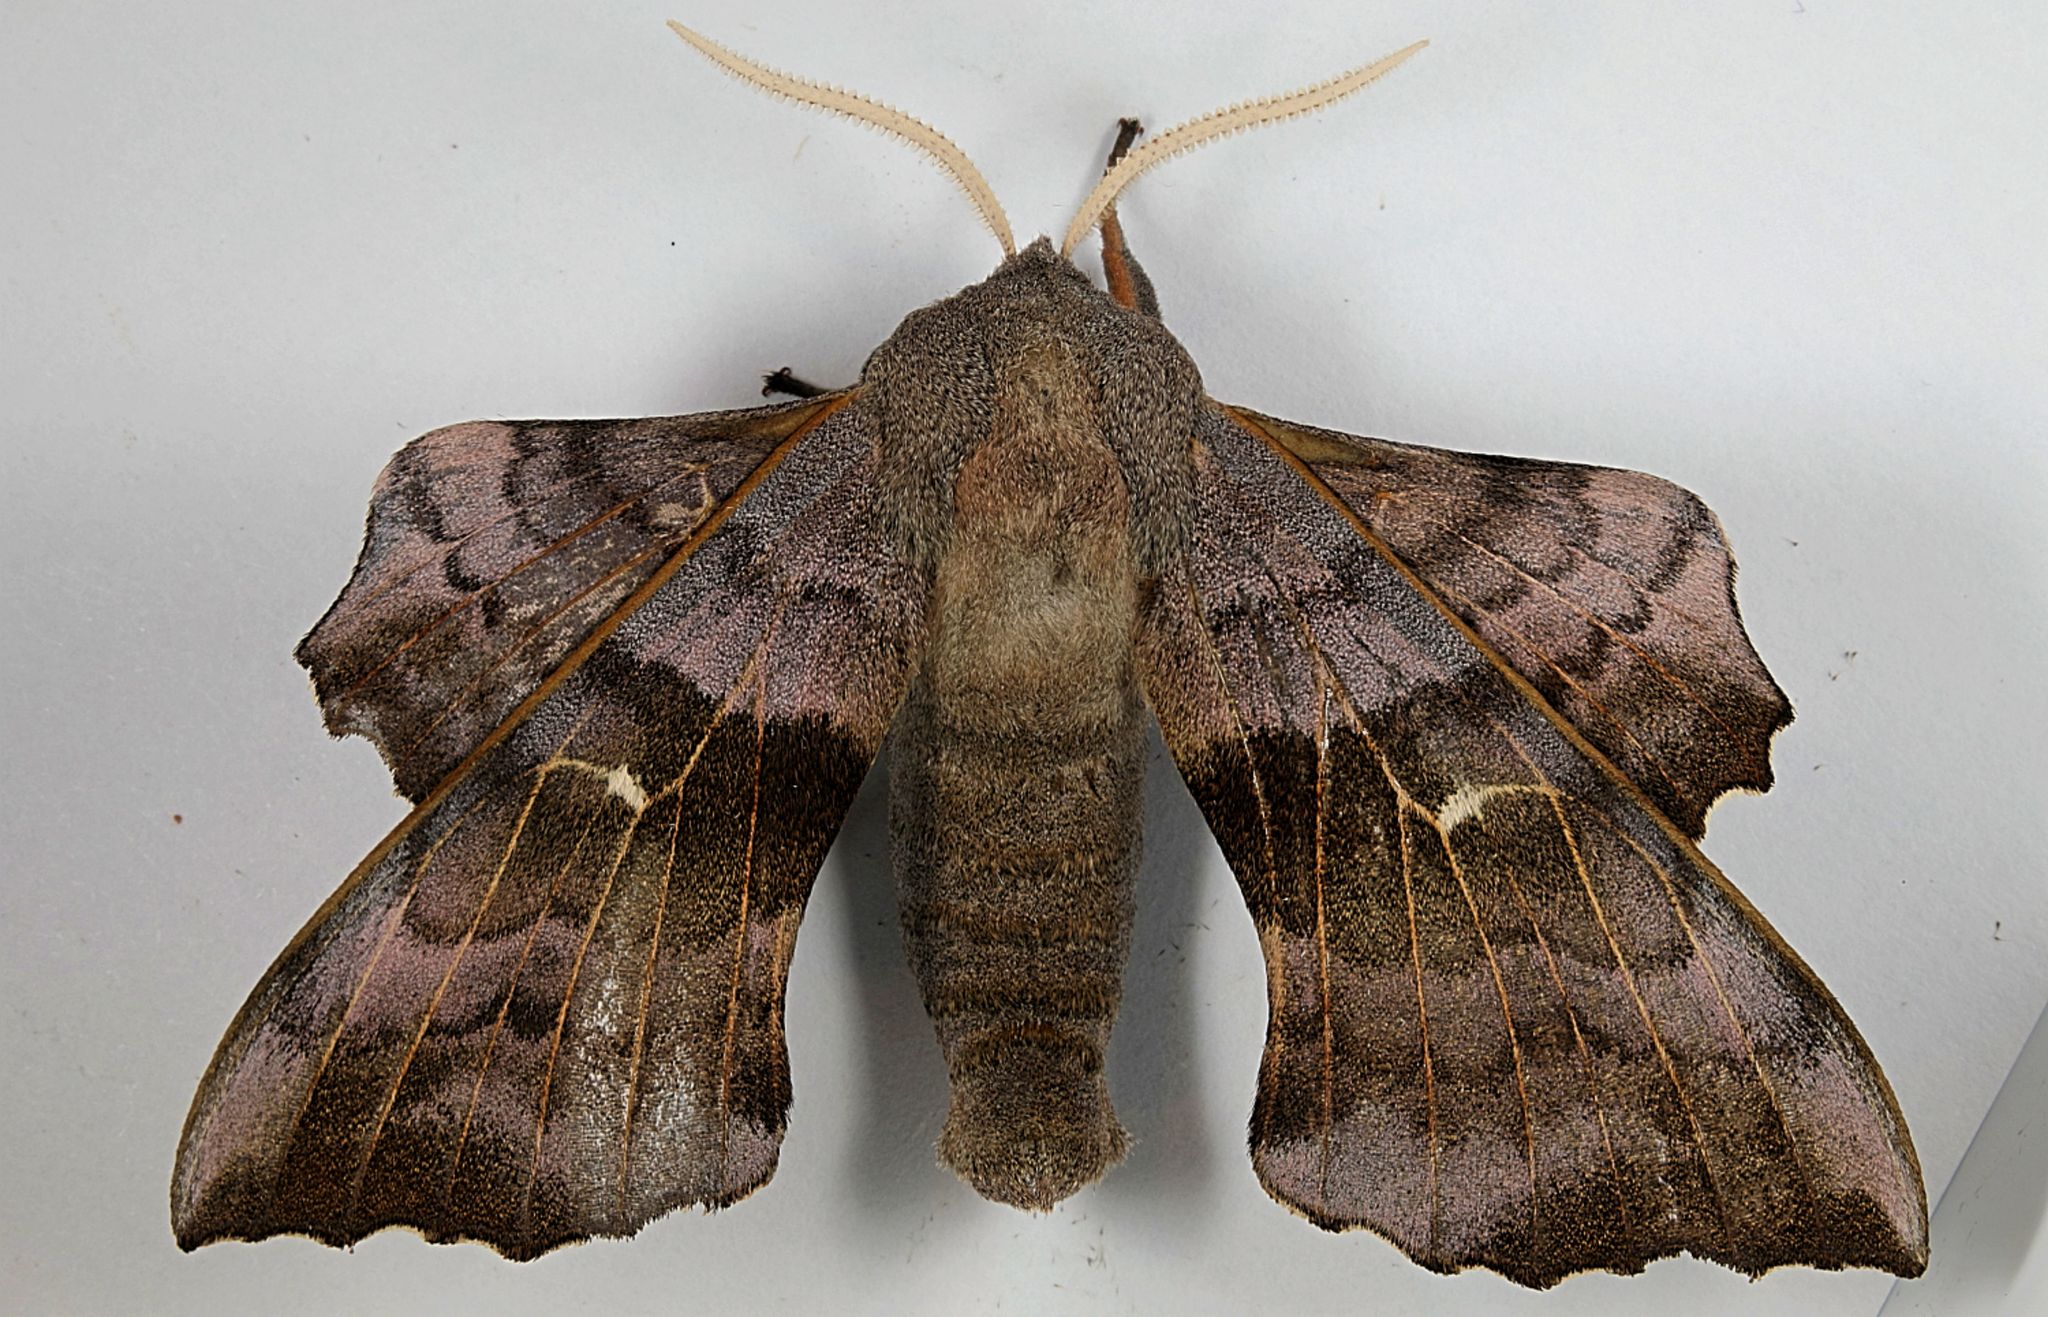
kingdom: Animalia
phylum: Arthropoda
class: Insecta
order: Lepidoptera
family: Sphingidae
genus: Laothoe
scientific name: Laothoe populi
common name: Poplar hawk-moth
